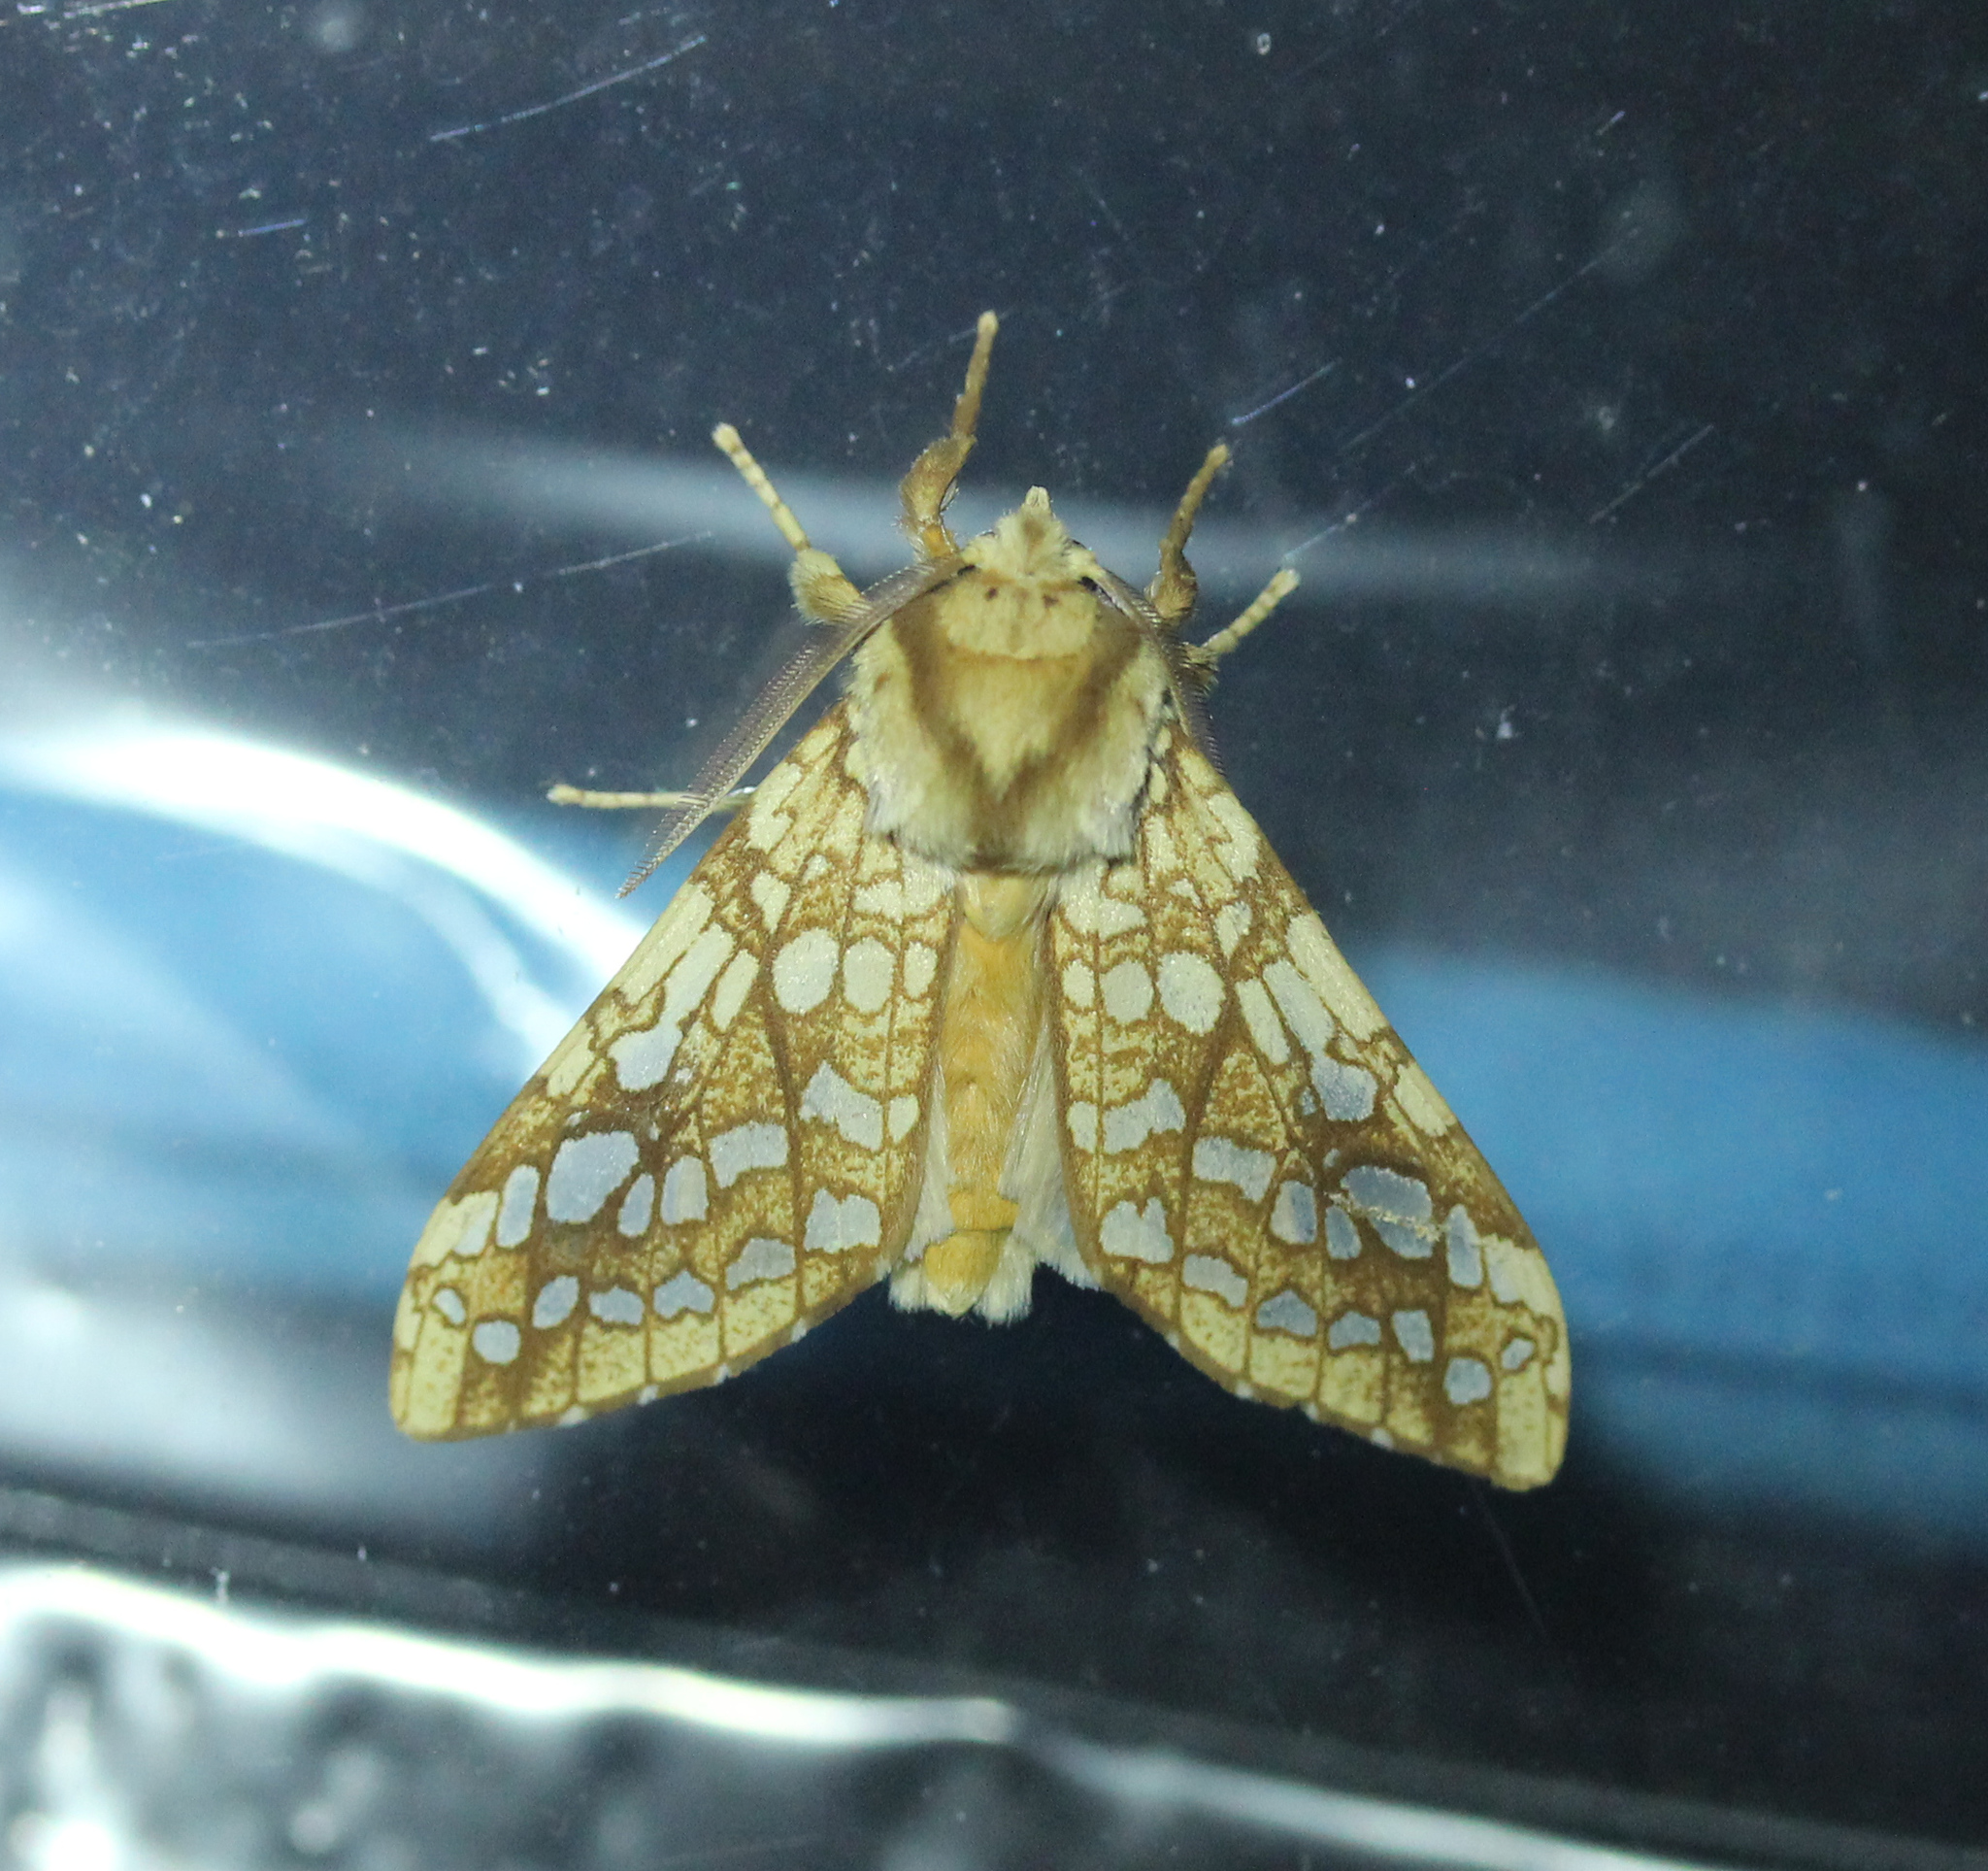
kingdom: Animalia
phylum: Arthropoda
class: Insecta
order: Lepidoptera
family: Erebidae
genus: Lophocampa
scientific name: Lophocampa caryae
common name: Hickory tussock moth
